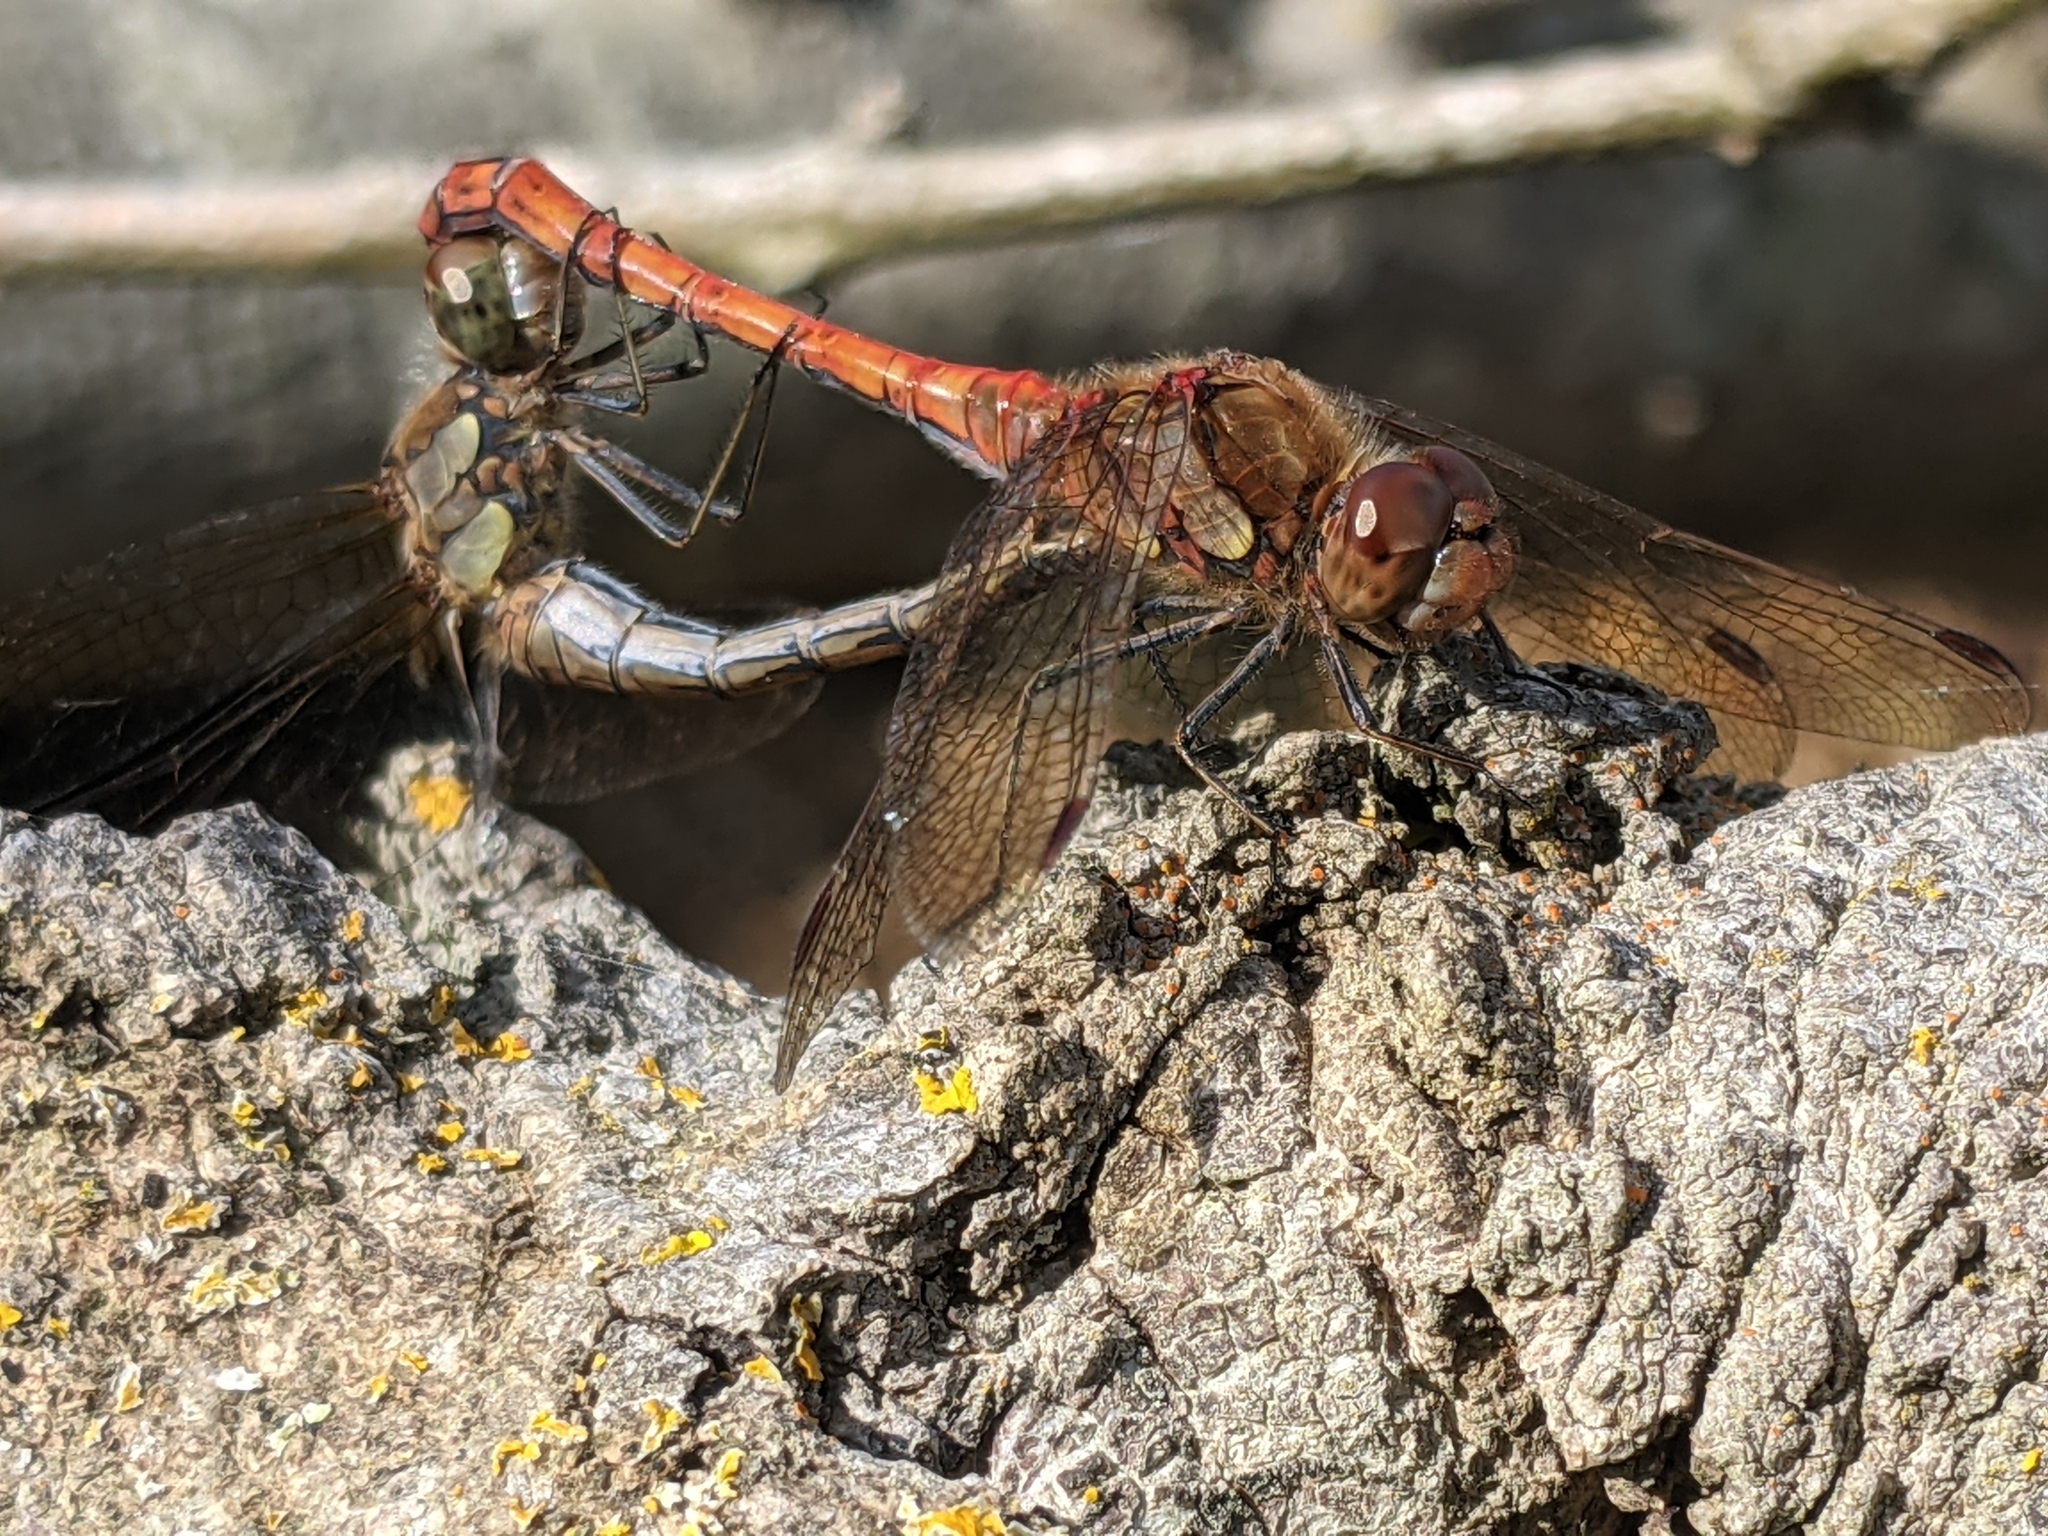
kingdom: Animalia
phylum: Arthropoda
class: Insecta
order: Odonata
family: Libellulidae
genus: Sympetrum
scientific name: Sympetrum striolatum
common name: Common darter
